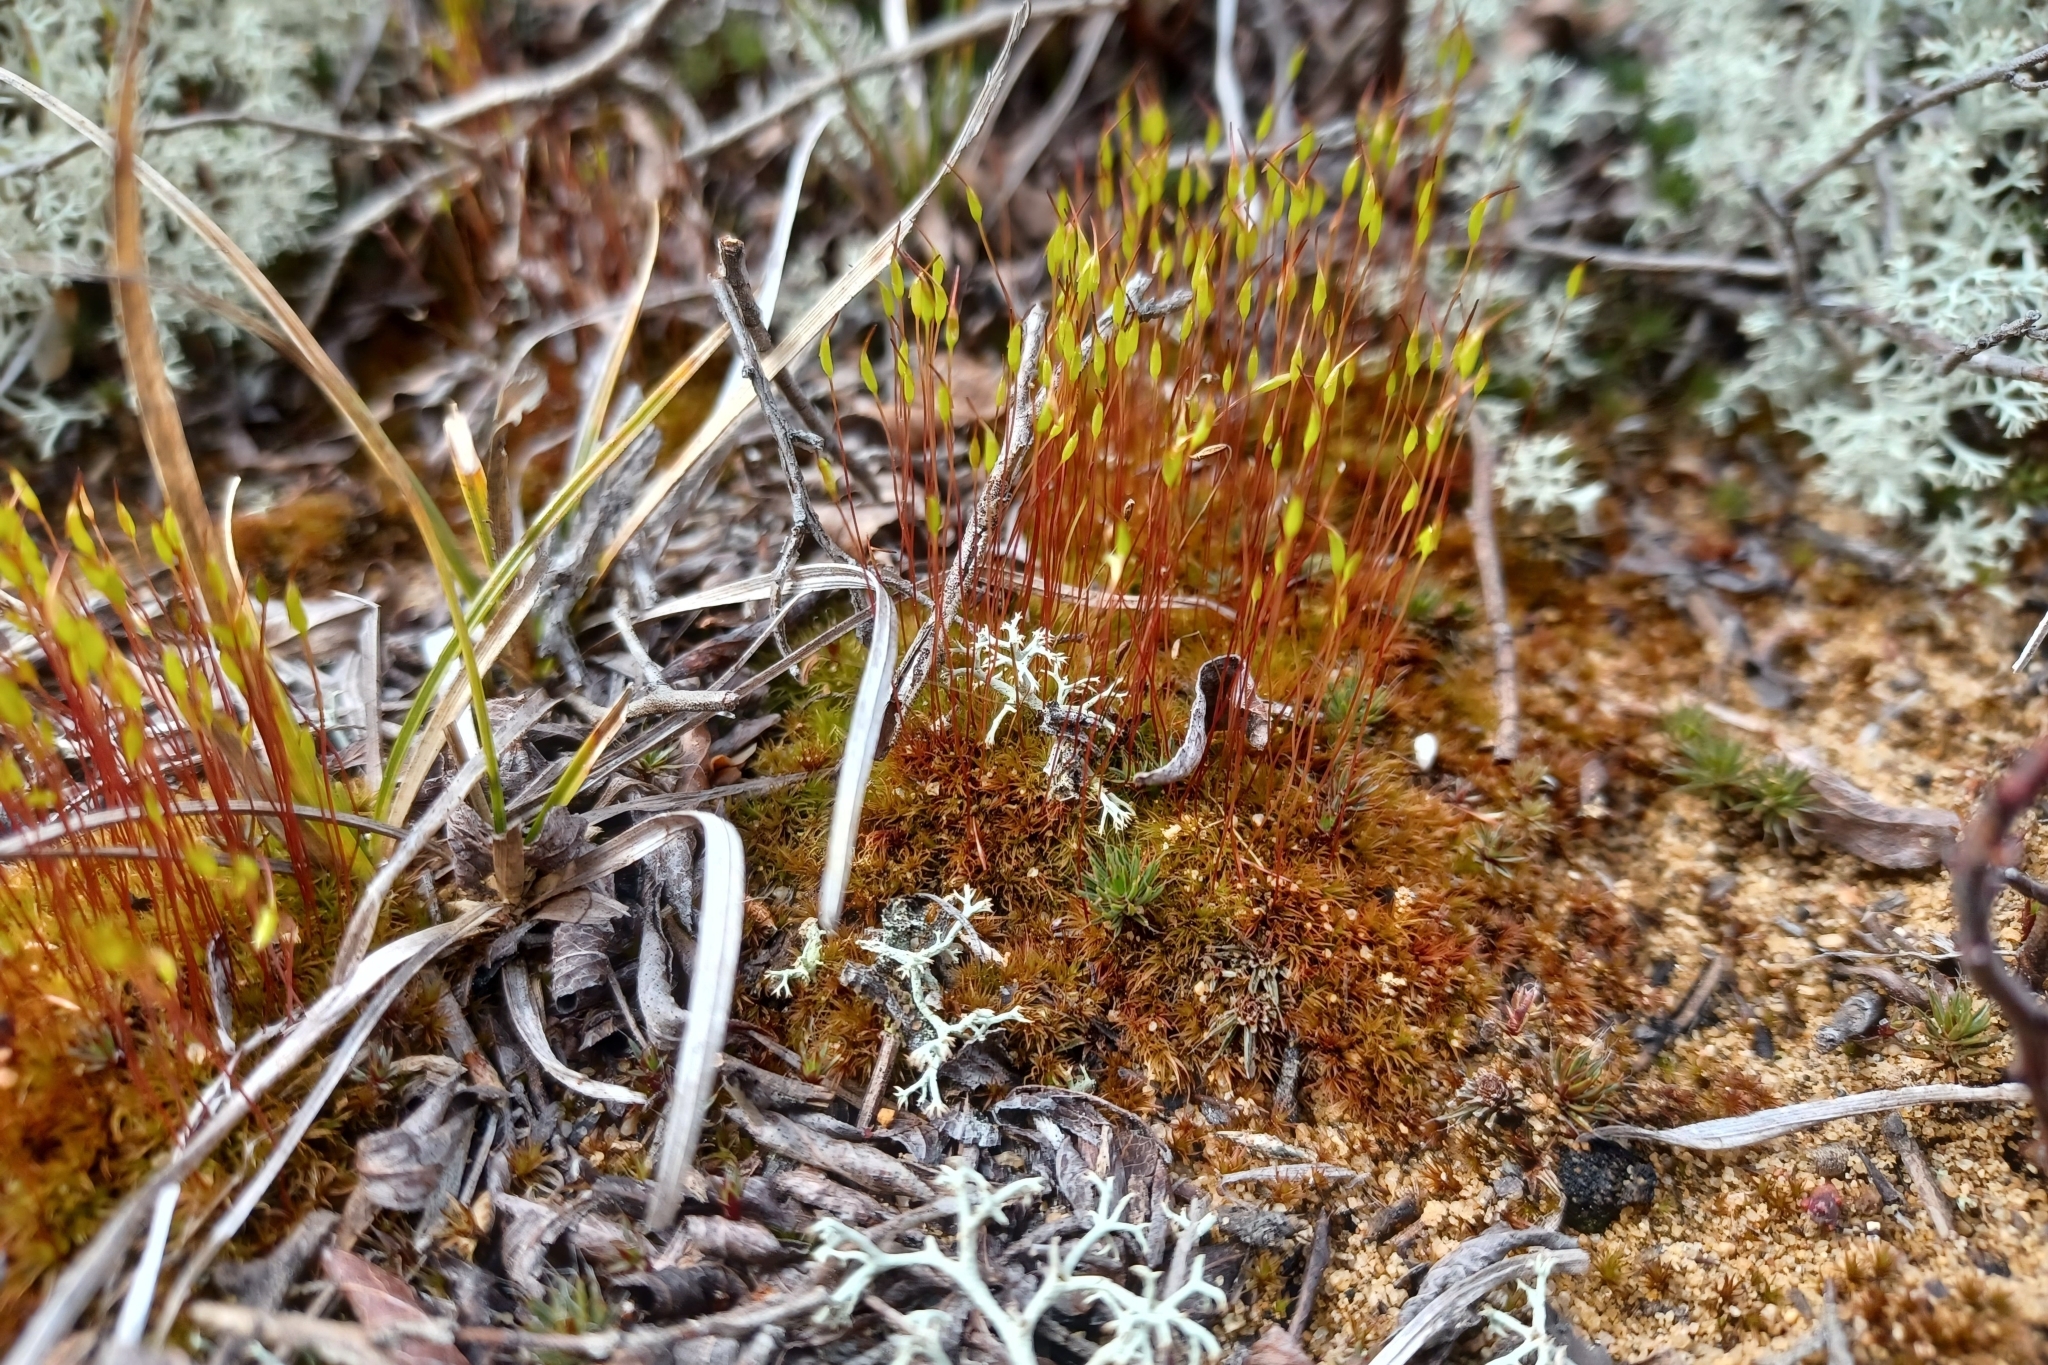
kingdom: Plantae
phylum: Bryophyta
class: Bryopsida
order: Dicranales
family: Ditrichaceae
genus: Ceratodon
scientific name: Ceratodon purpureus
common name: Redshank
